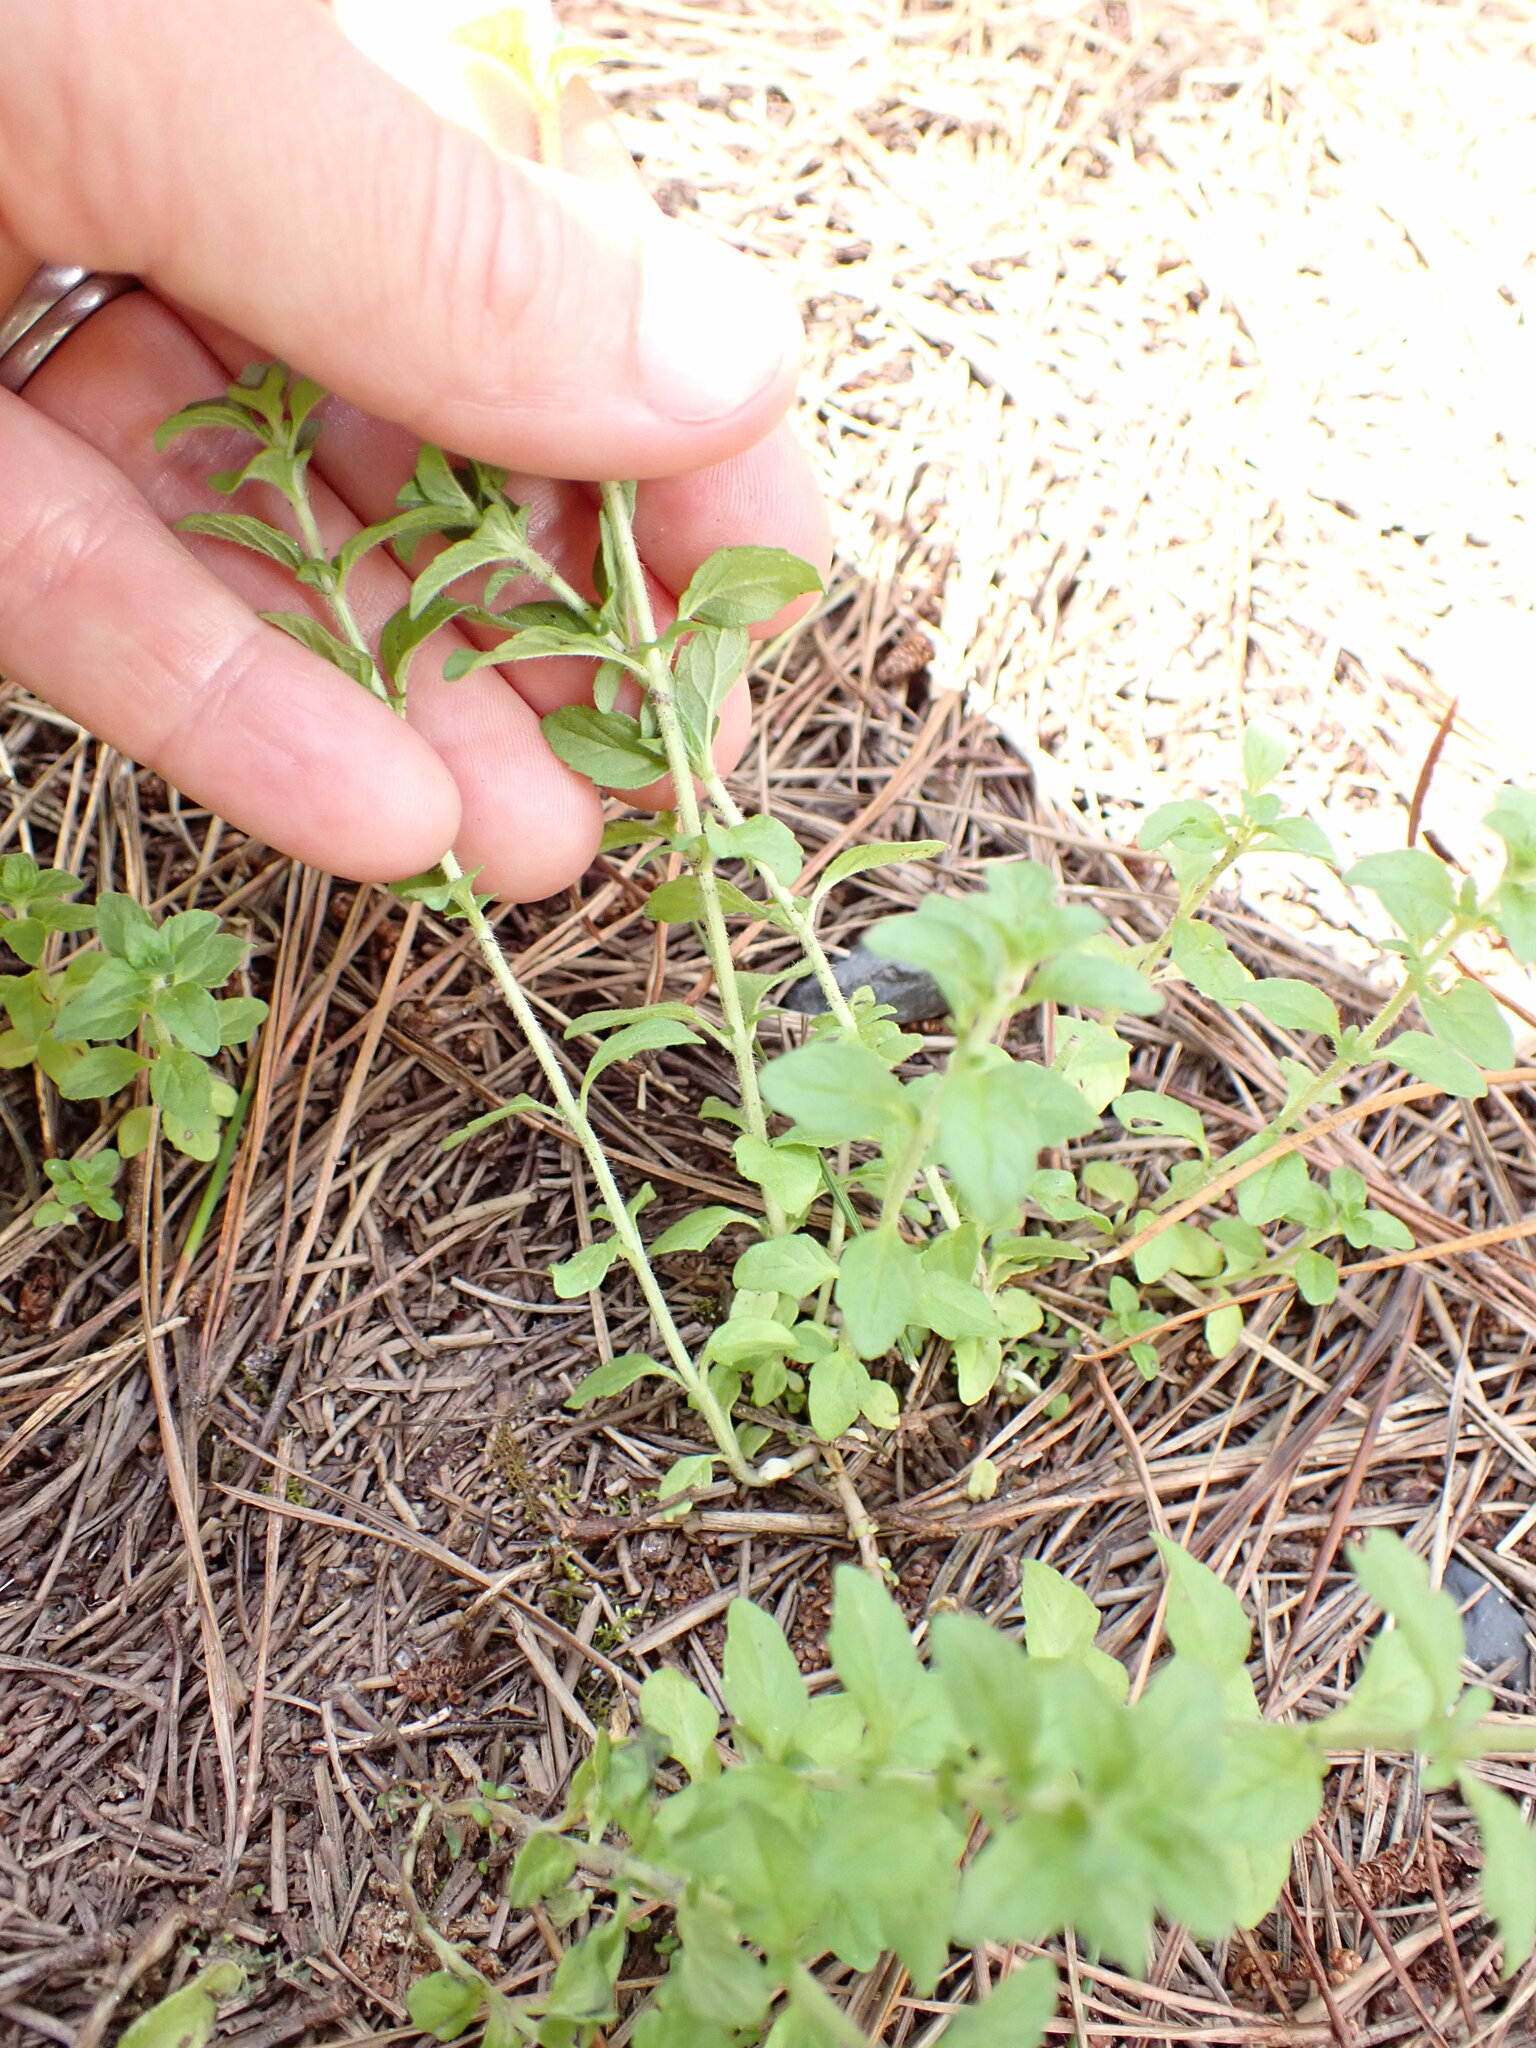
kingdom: Plantae
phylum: Tracheophyta
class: Magnoliopsida
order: Lamiales
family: Lamiaceae
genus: Mentha
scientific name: Mentha pulegium
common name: Pennyroyal
